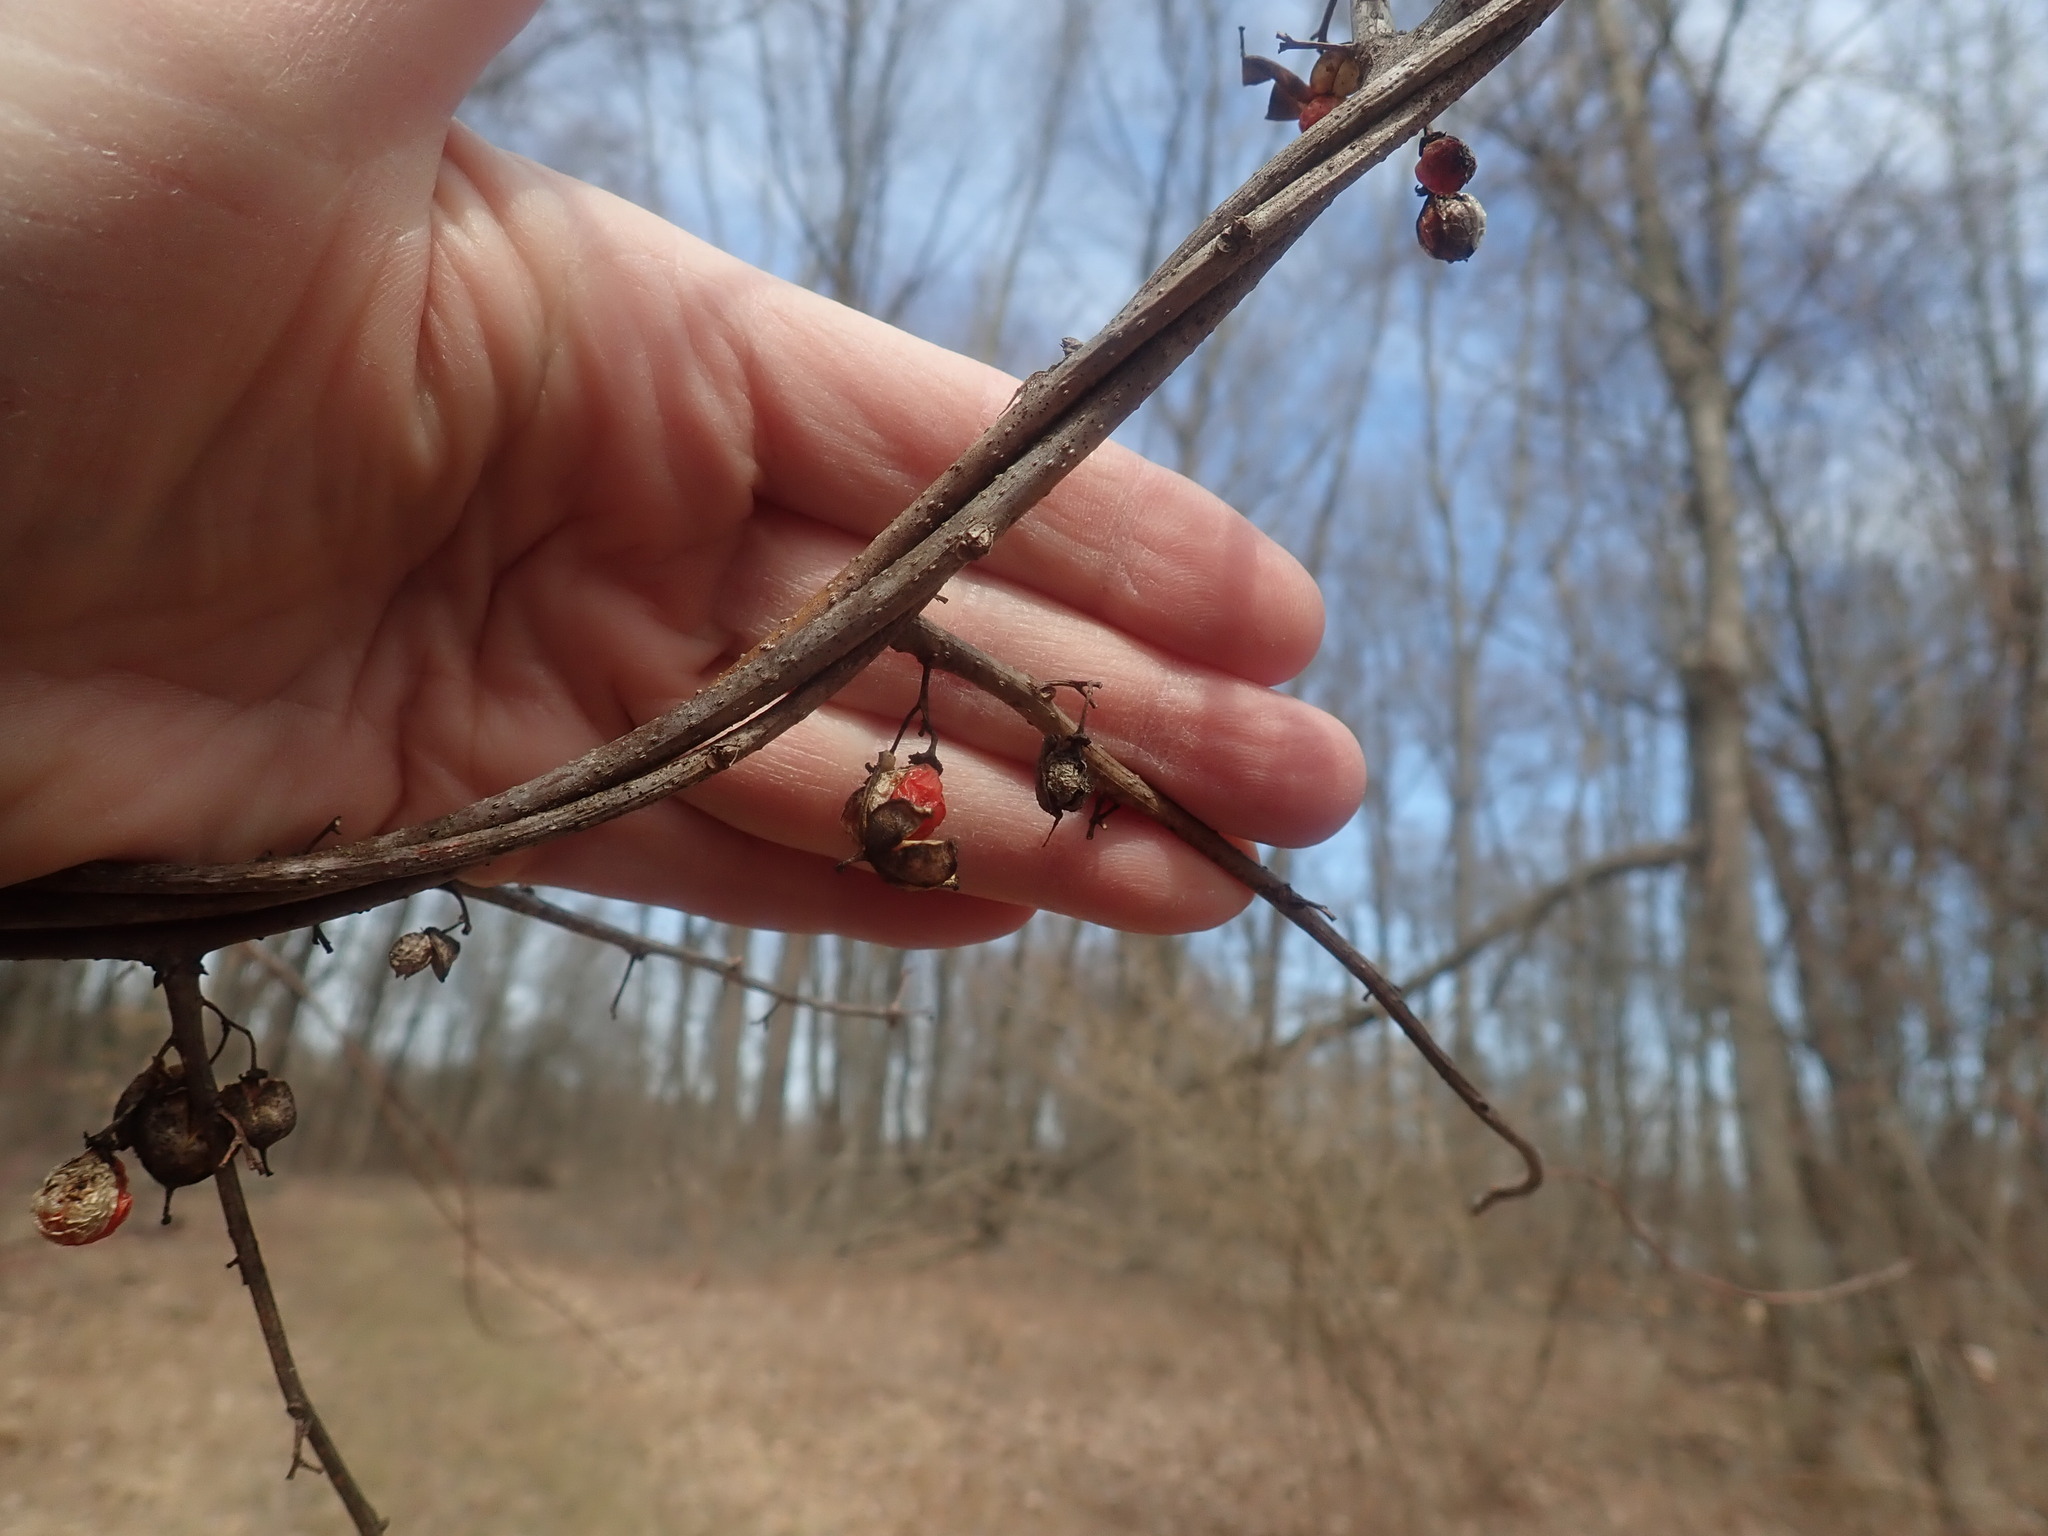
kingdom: Plantae
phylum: Tracheophyta
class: Magnoliopsida
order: Celastrales
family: Celastraceae
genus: Celastrus
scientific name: Celastrus orbiculatus
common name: Oriental bittersweet
